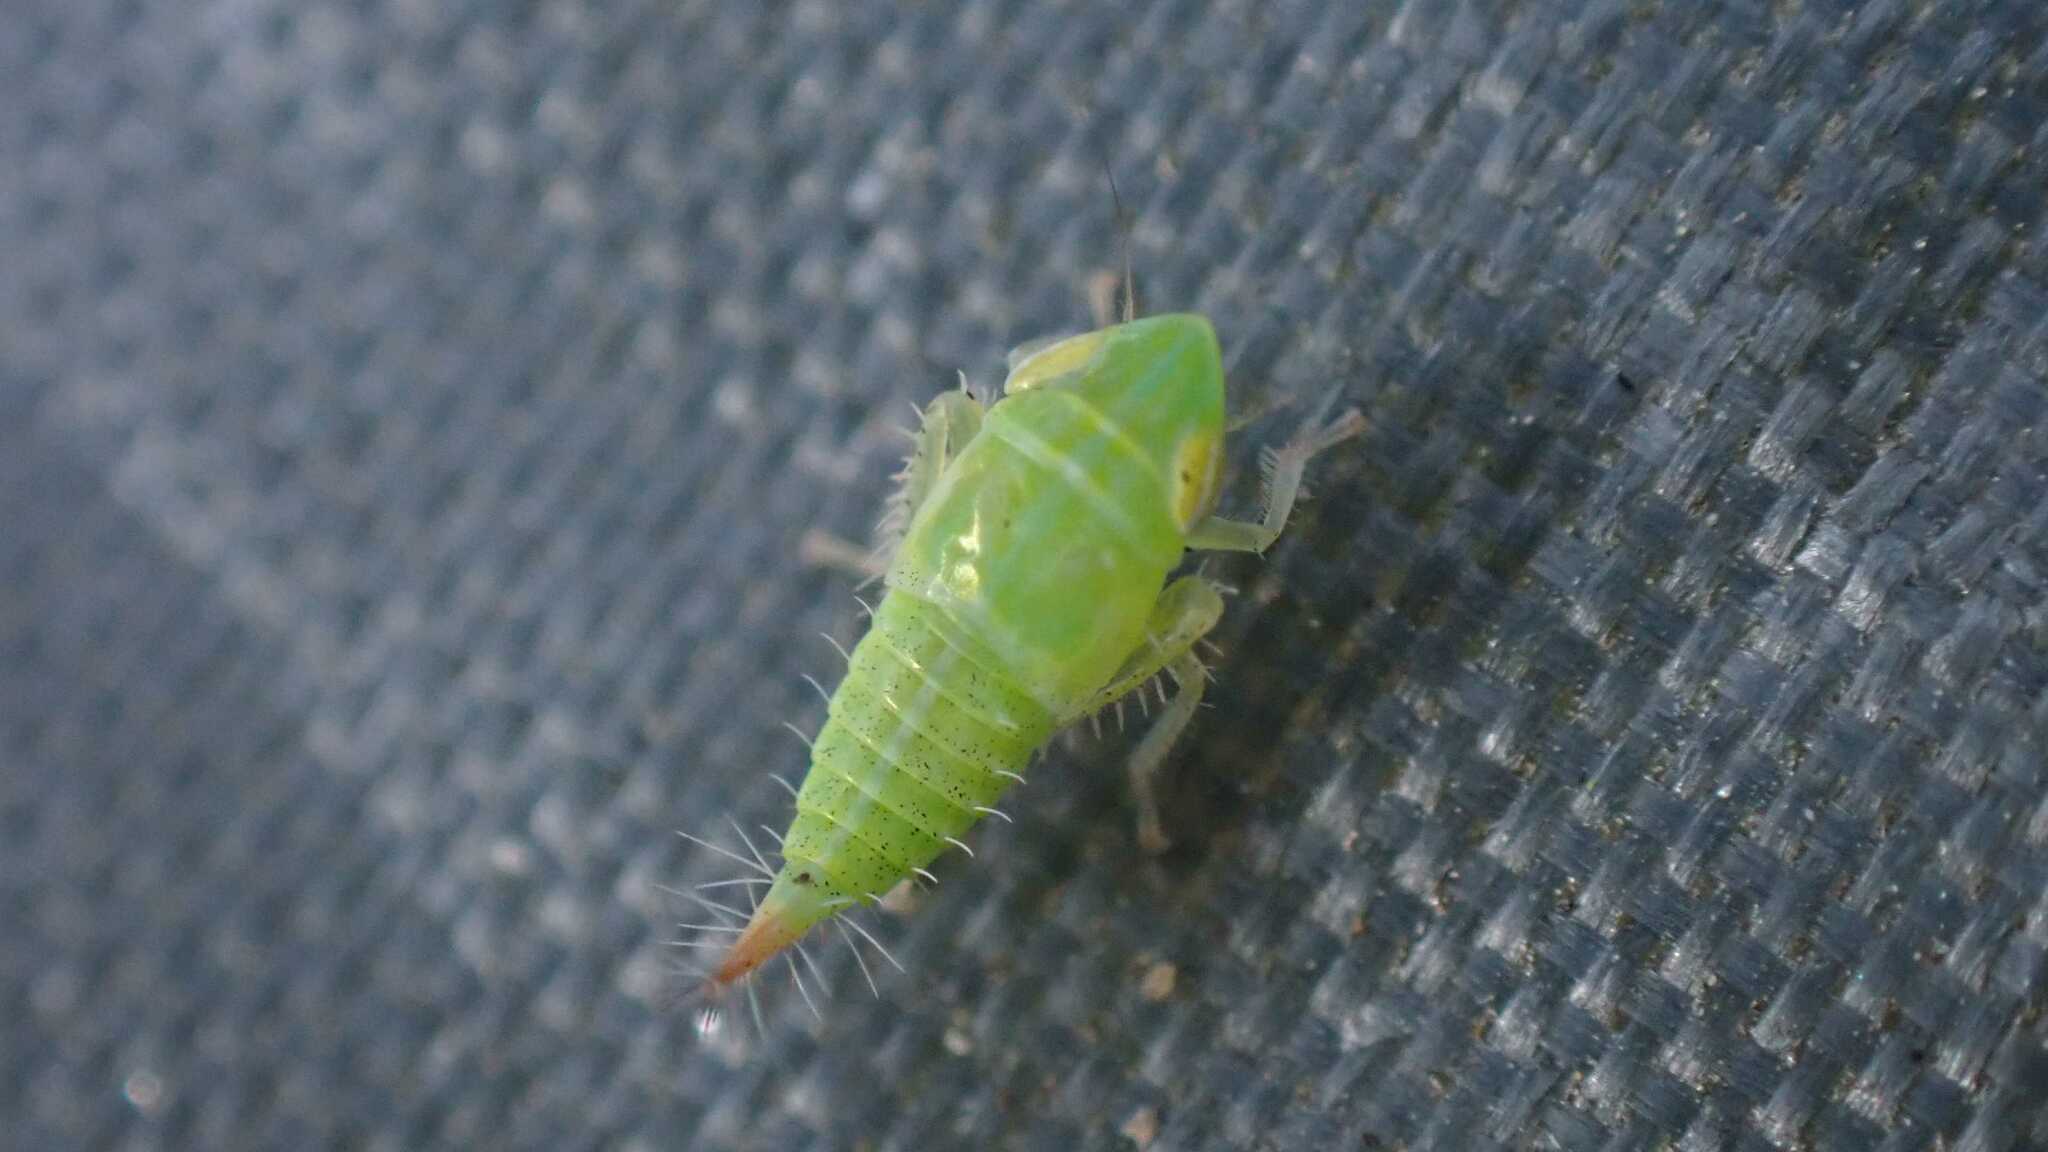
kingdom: Animalia
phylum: Arthropoda
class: Insecta
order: Hemiptera
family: Cicadellidae
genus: Fieberiella
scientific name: Fieberiella
